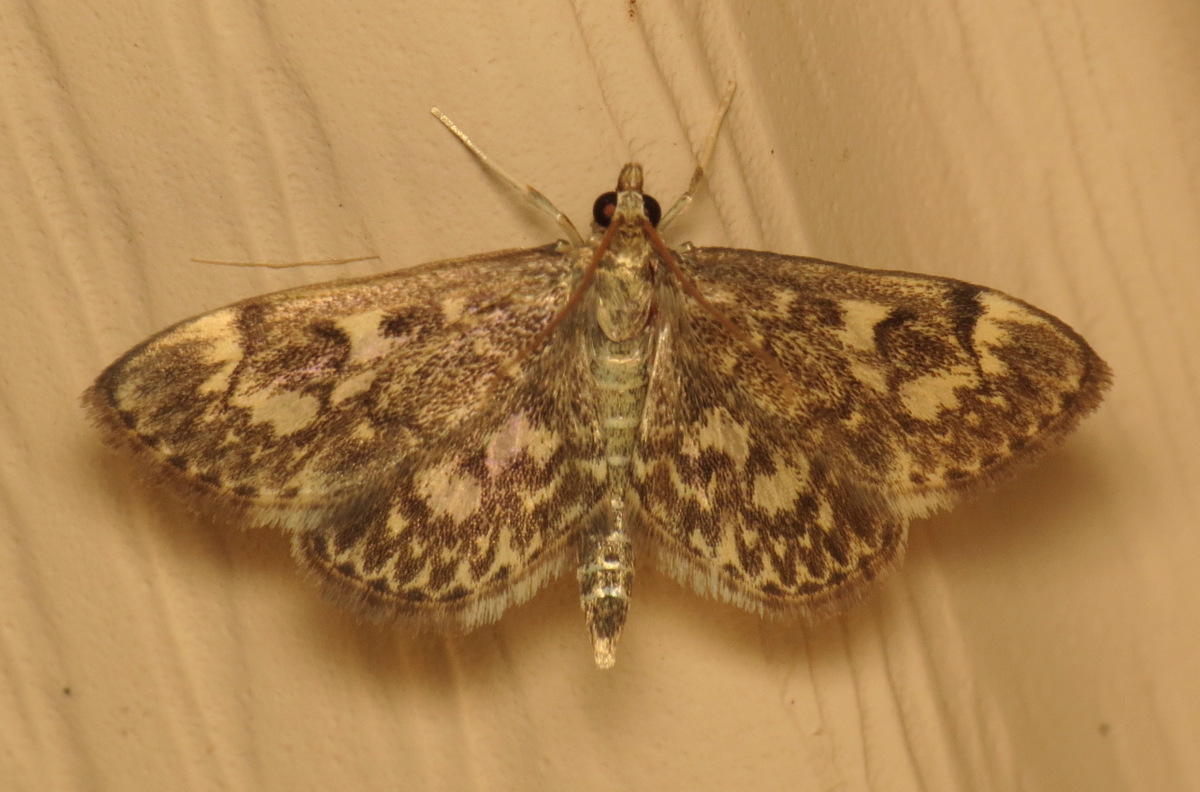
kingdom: Animalia
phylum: Arthropoda
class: Insecta
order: Lepidoptera
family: Crambidae
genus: Anania
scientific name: Anania tertialis
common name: Crowned phylctaenia moth
